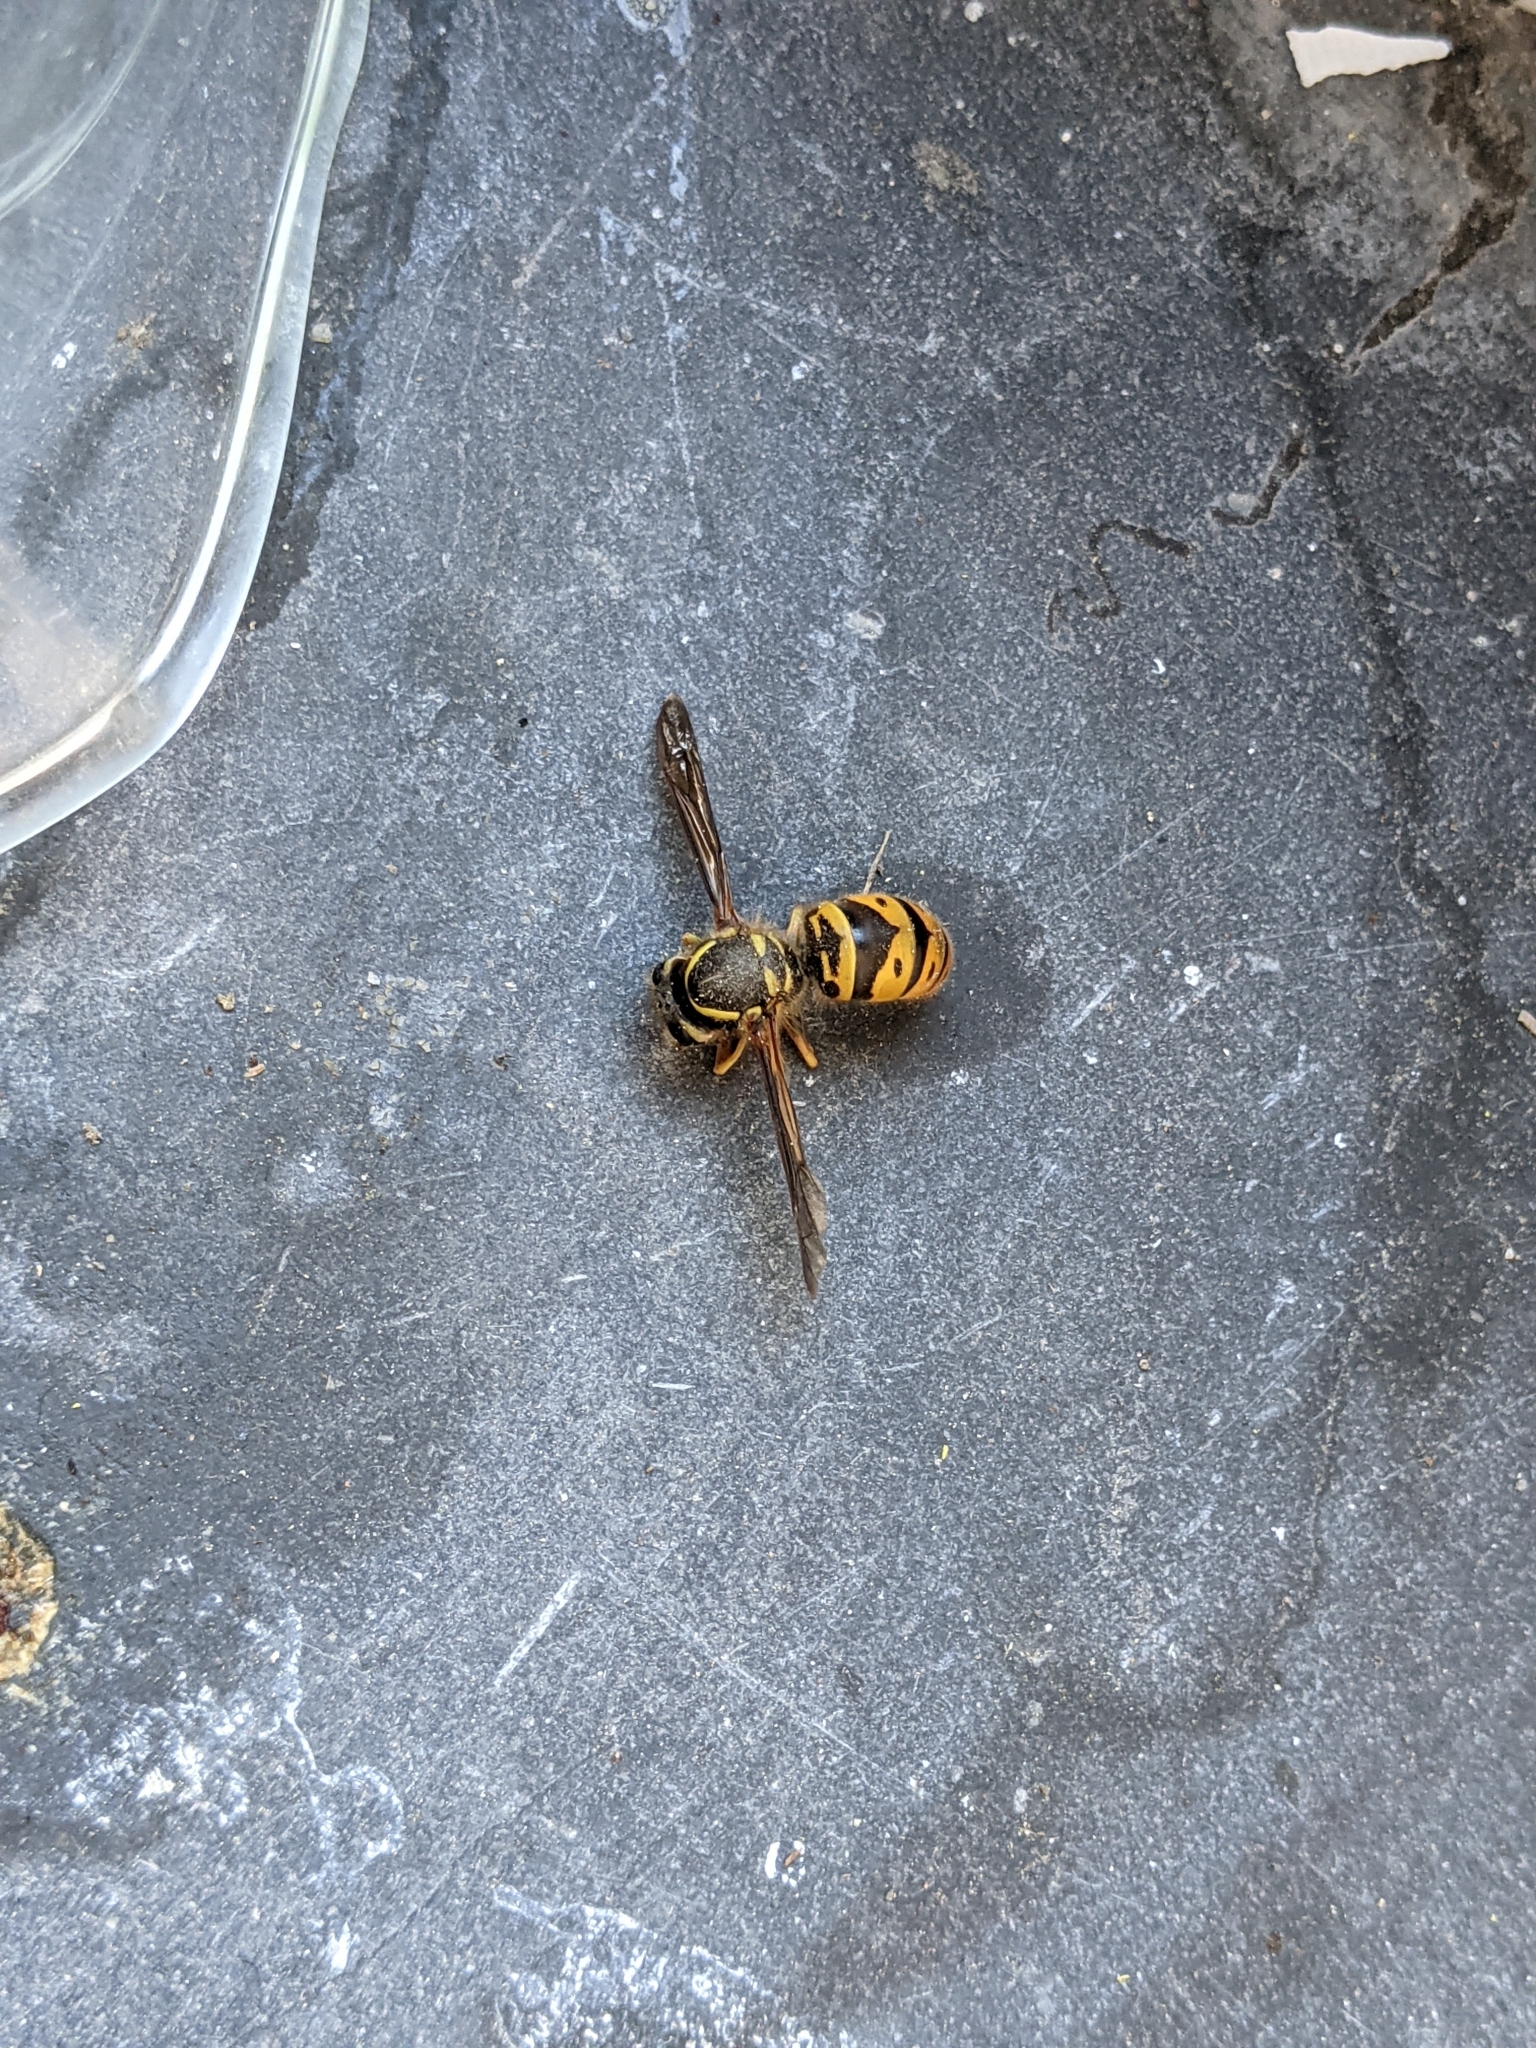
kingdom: Animalia
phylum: Arthropoda
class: Insecta
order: Hymenoptera
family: Vespidae
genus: Vespula
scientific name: Vespula maculifrons
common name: Eastern yellowjacket
